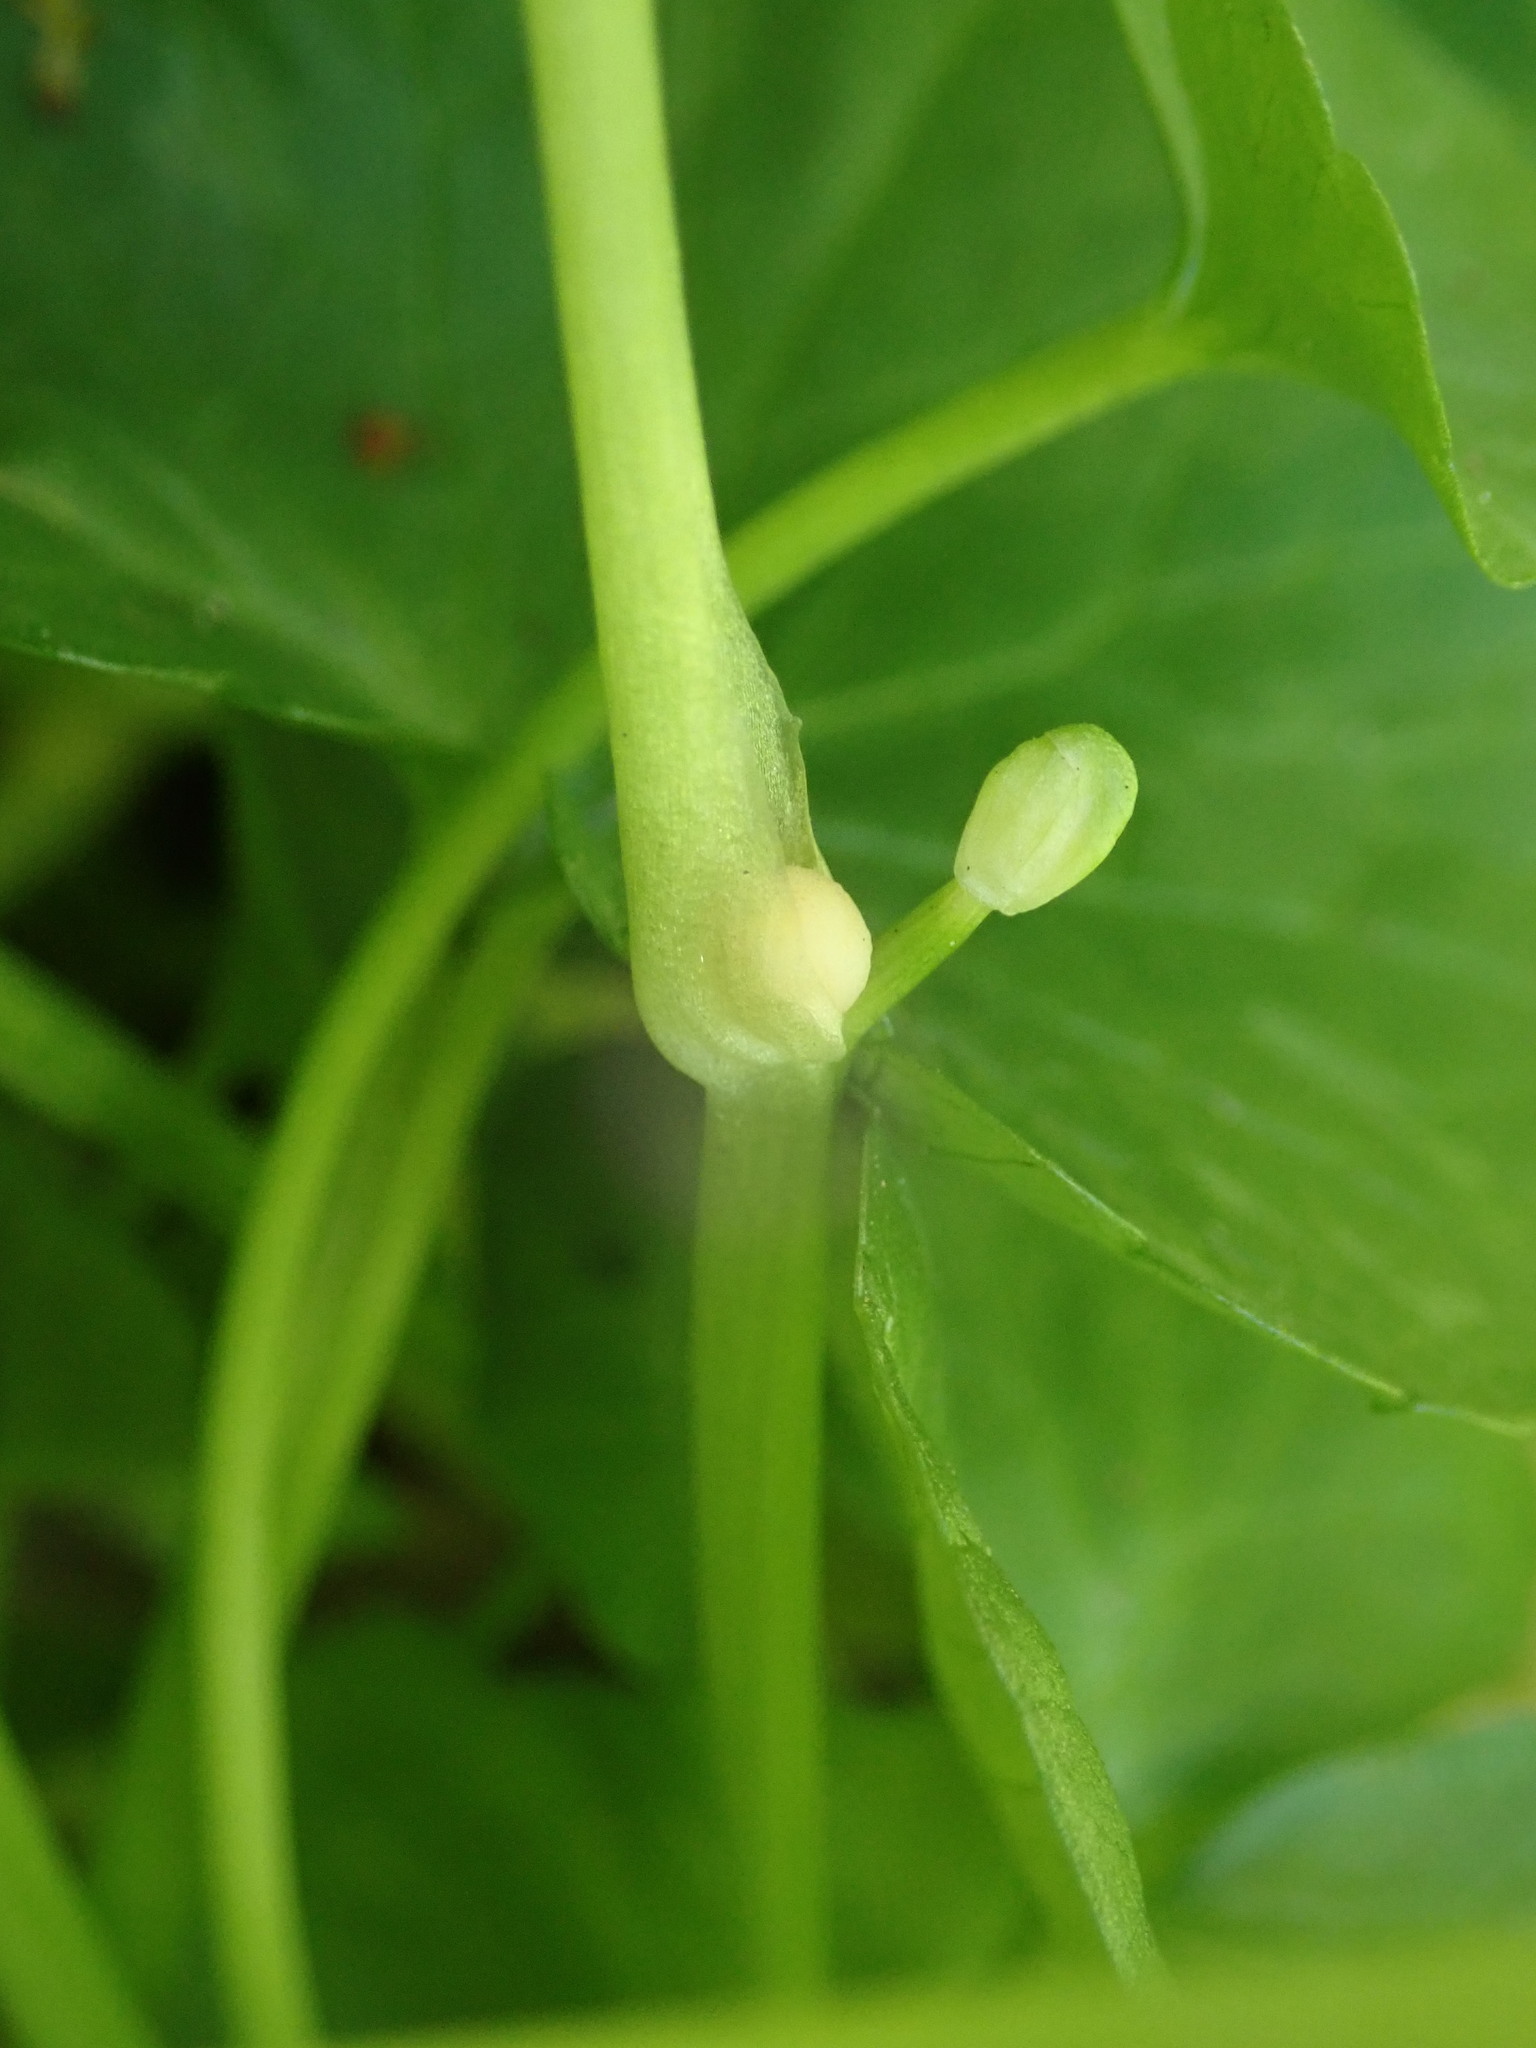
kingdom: Plantae
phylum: Tracheophyta
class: Magnoliopsida
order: Ranunculales
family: Ranunculaceae
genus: Ficaria
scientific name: Ficaria verna
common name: Lesser celandine
